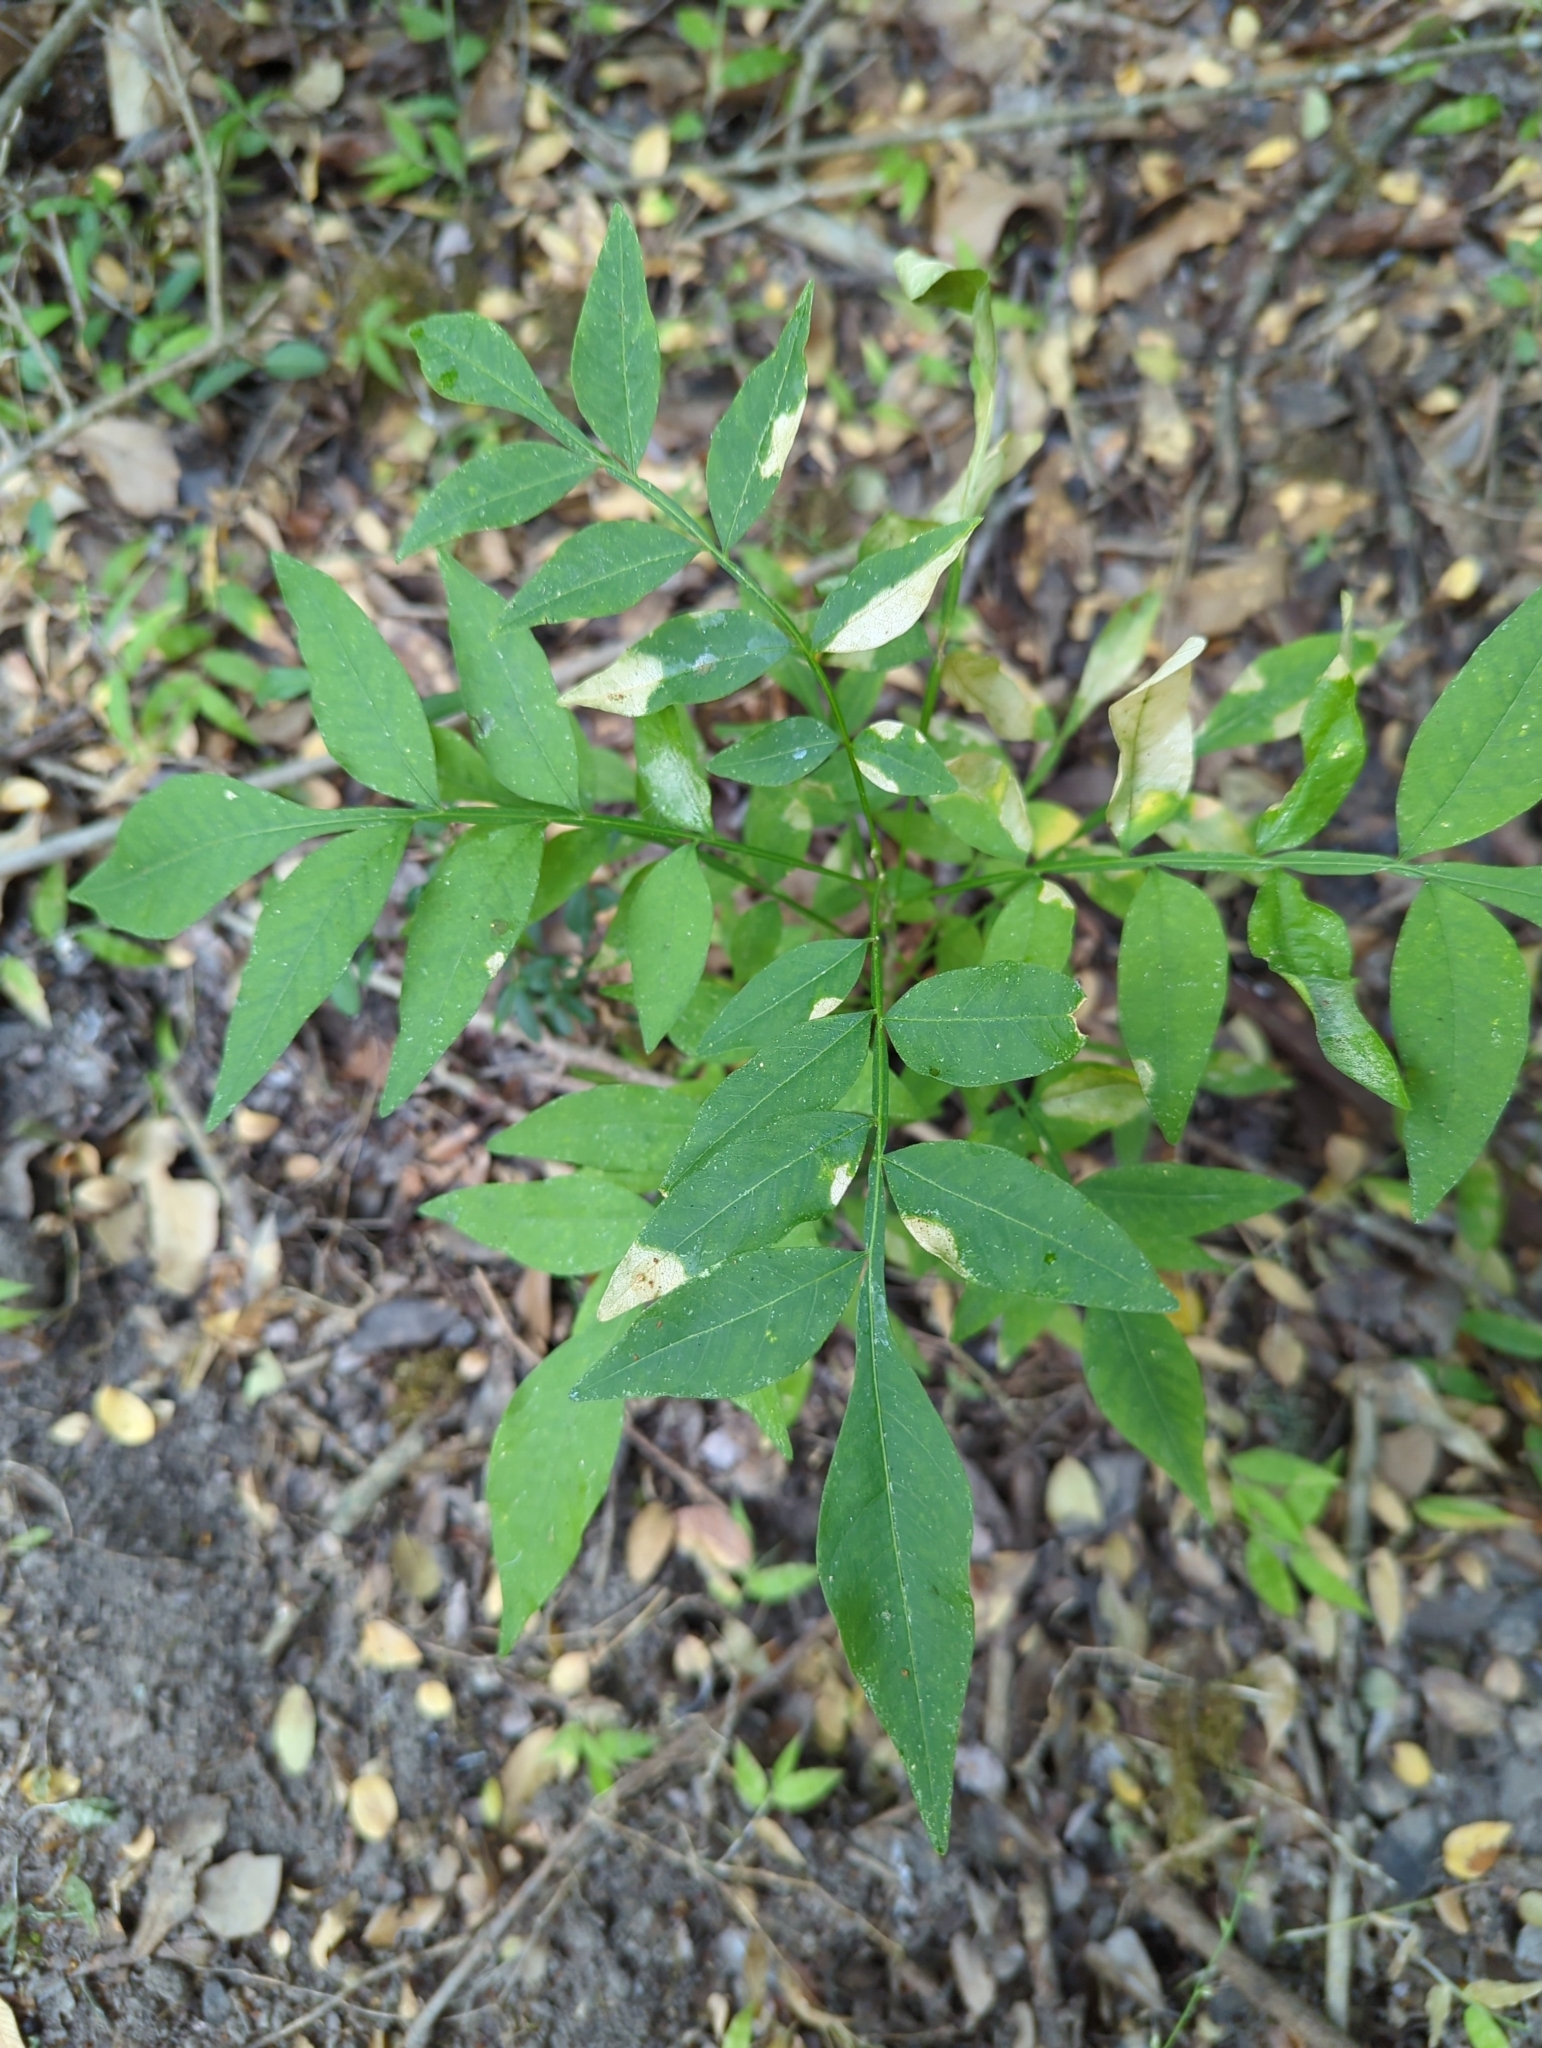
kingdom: Plantae
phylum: Tracheophyta
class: Magnoliopsida
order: Sapindales
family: Sapindaceae
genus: Sapindus
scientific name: Sapindus drummondii
